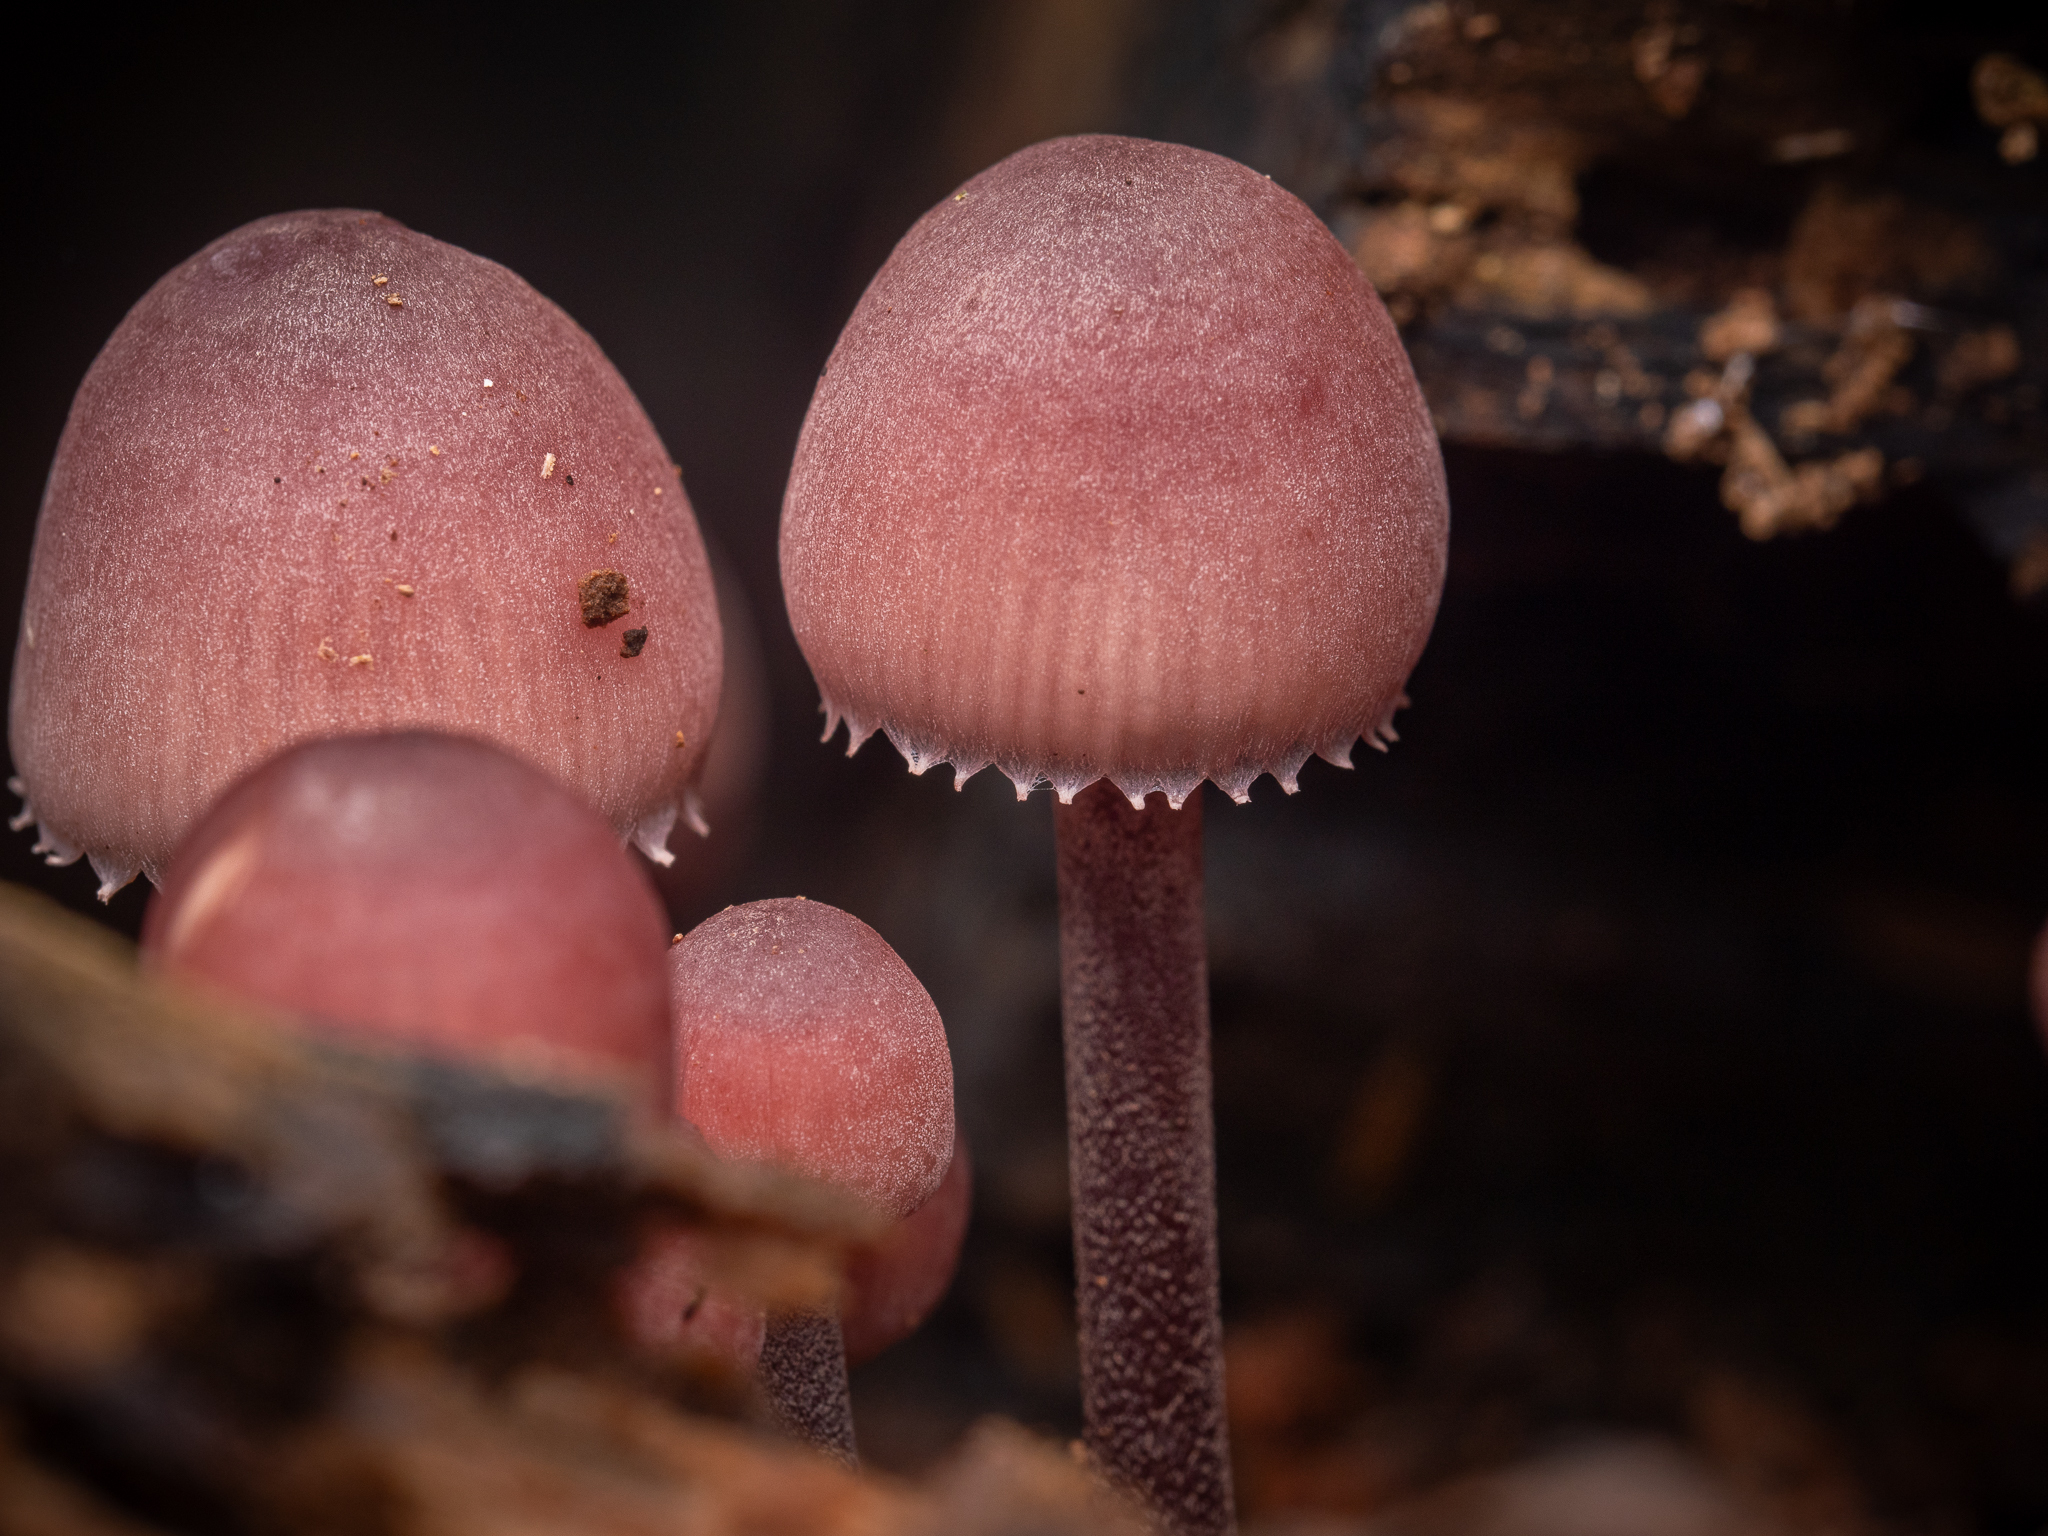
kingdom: Fungi
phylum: Basidiomycota
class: Agaricomycetes
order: Agaricales
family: Mycenaceae
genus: Mycena
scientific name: Mycena haematopus
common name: Burgundydrop bonnet
